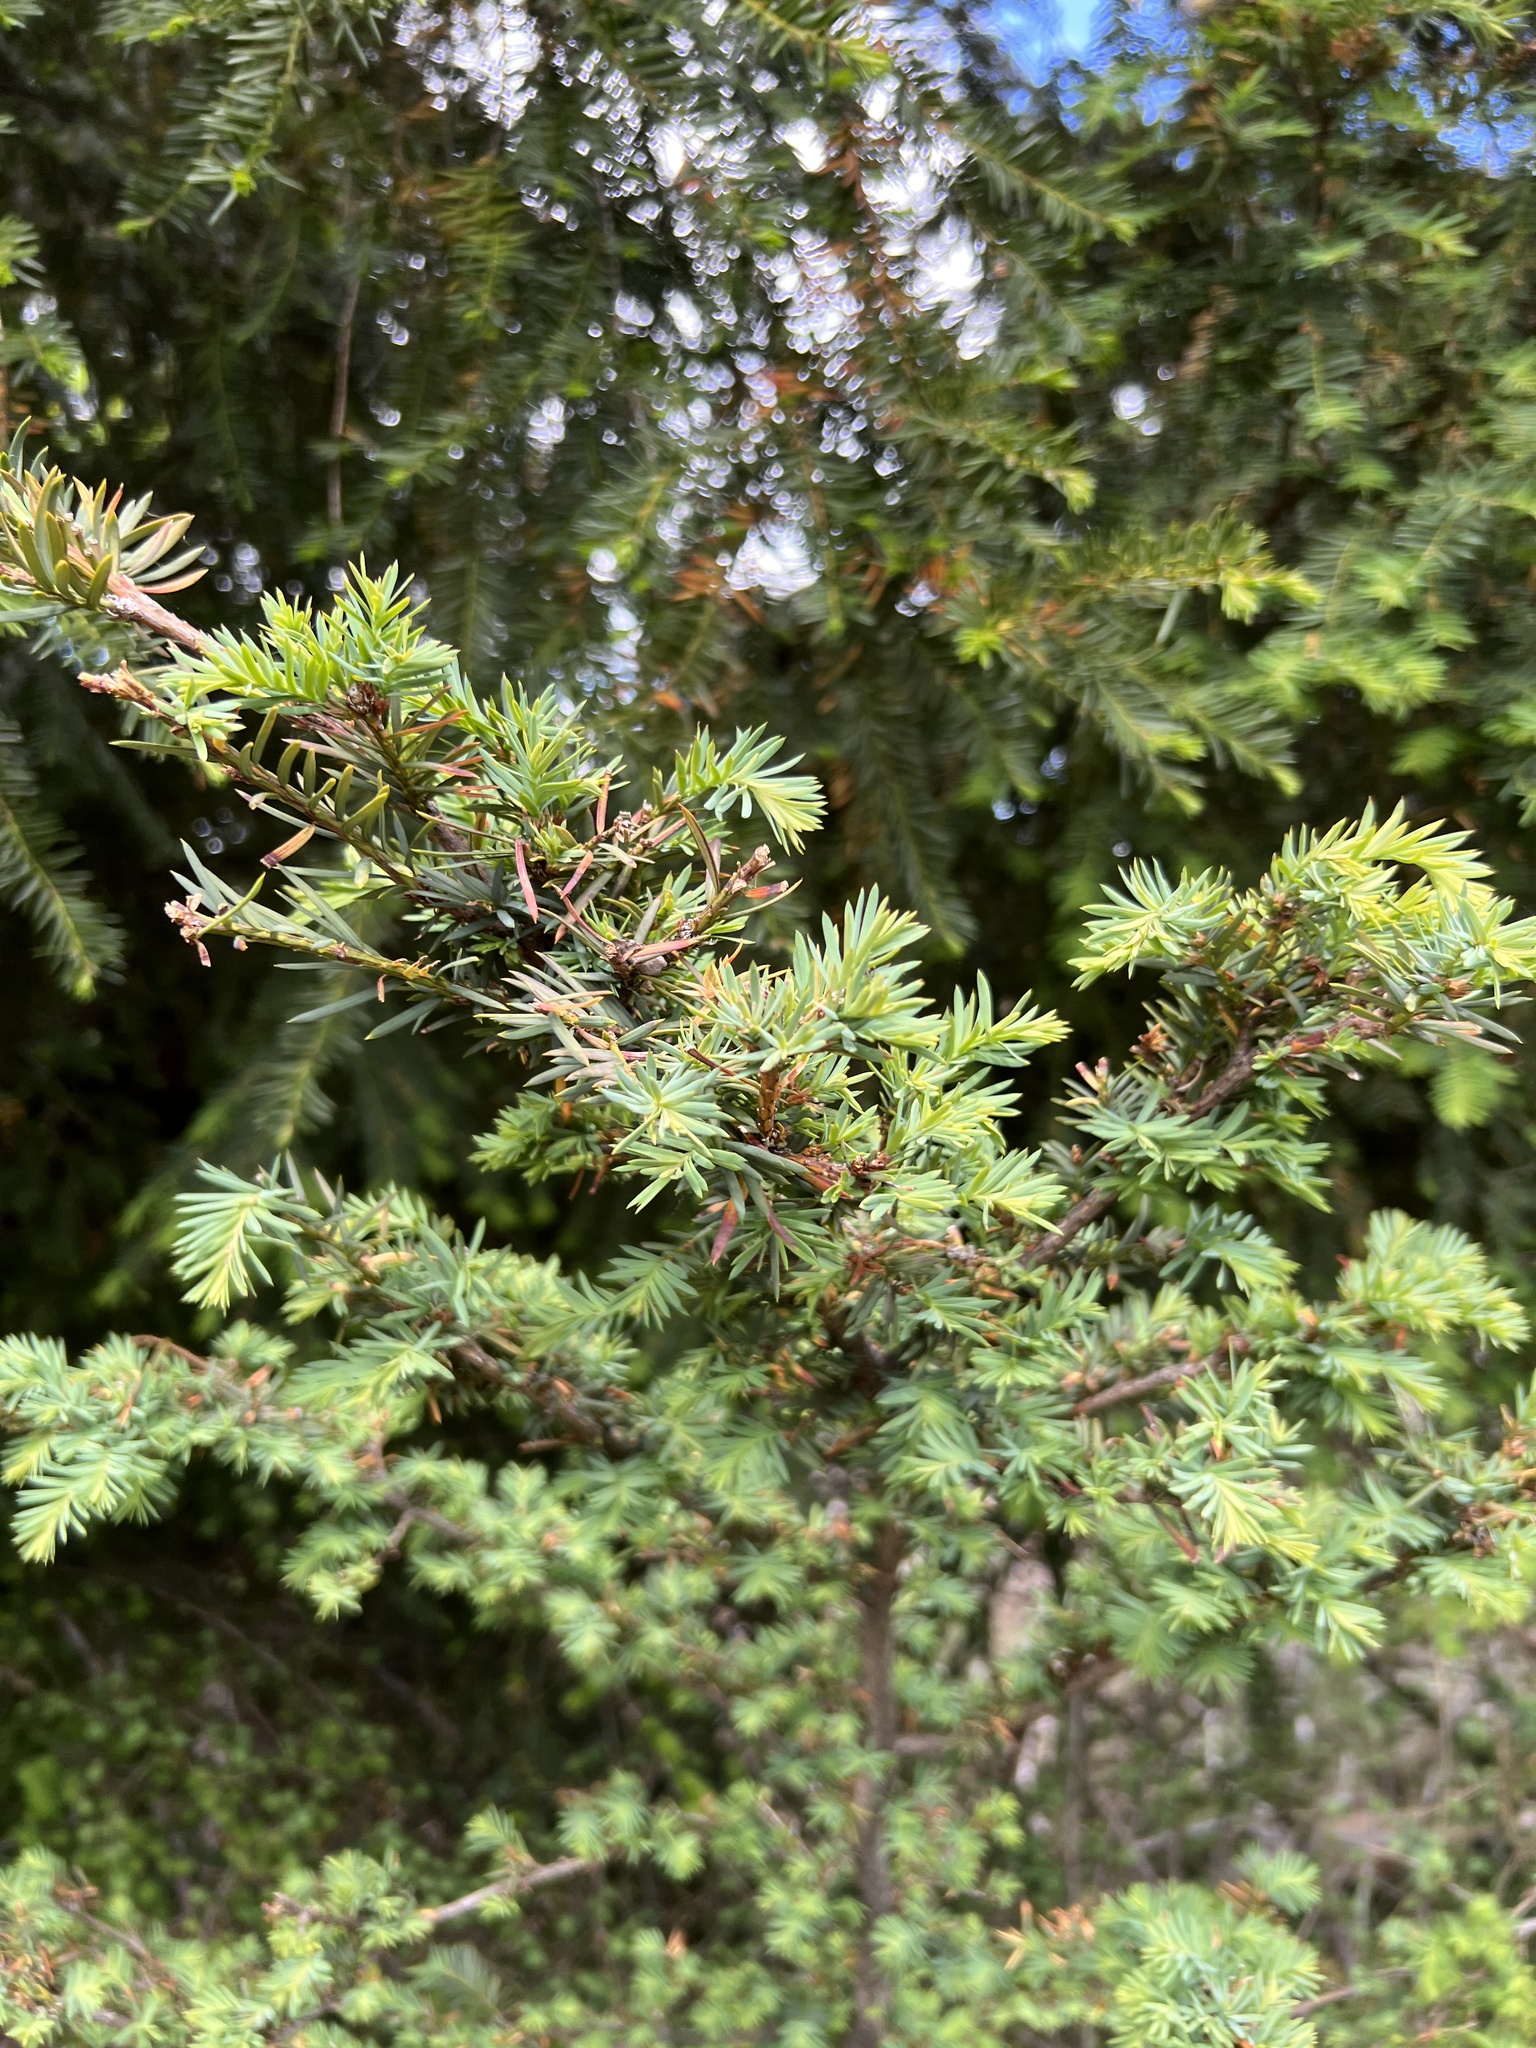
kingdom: Plantae
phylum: Tracheophyta
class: Pinopsida
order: Pinales
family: Taxaceae
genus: Taxus
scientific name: Taxus brevifolia
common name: Pacific yew
